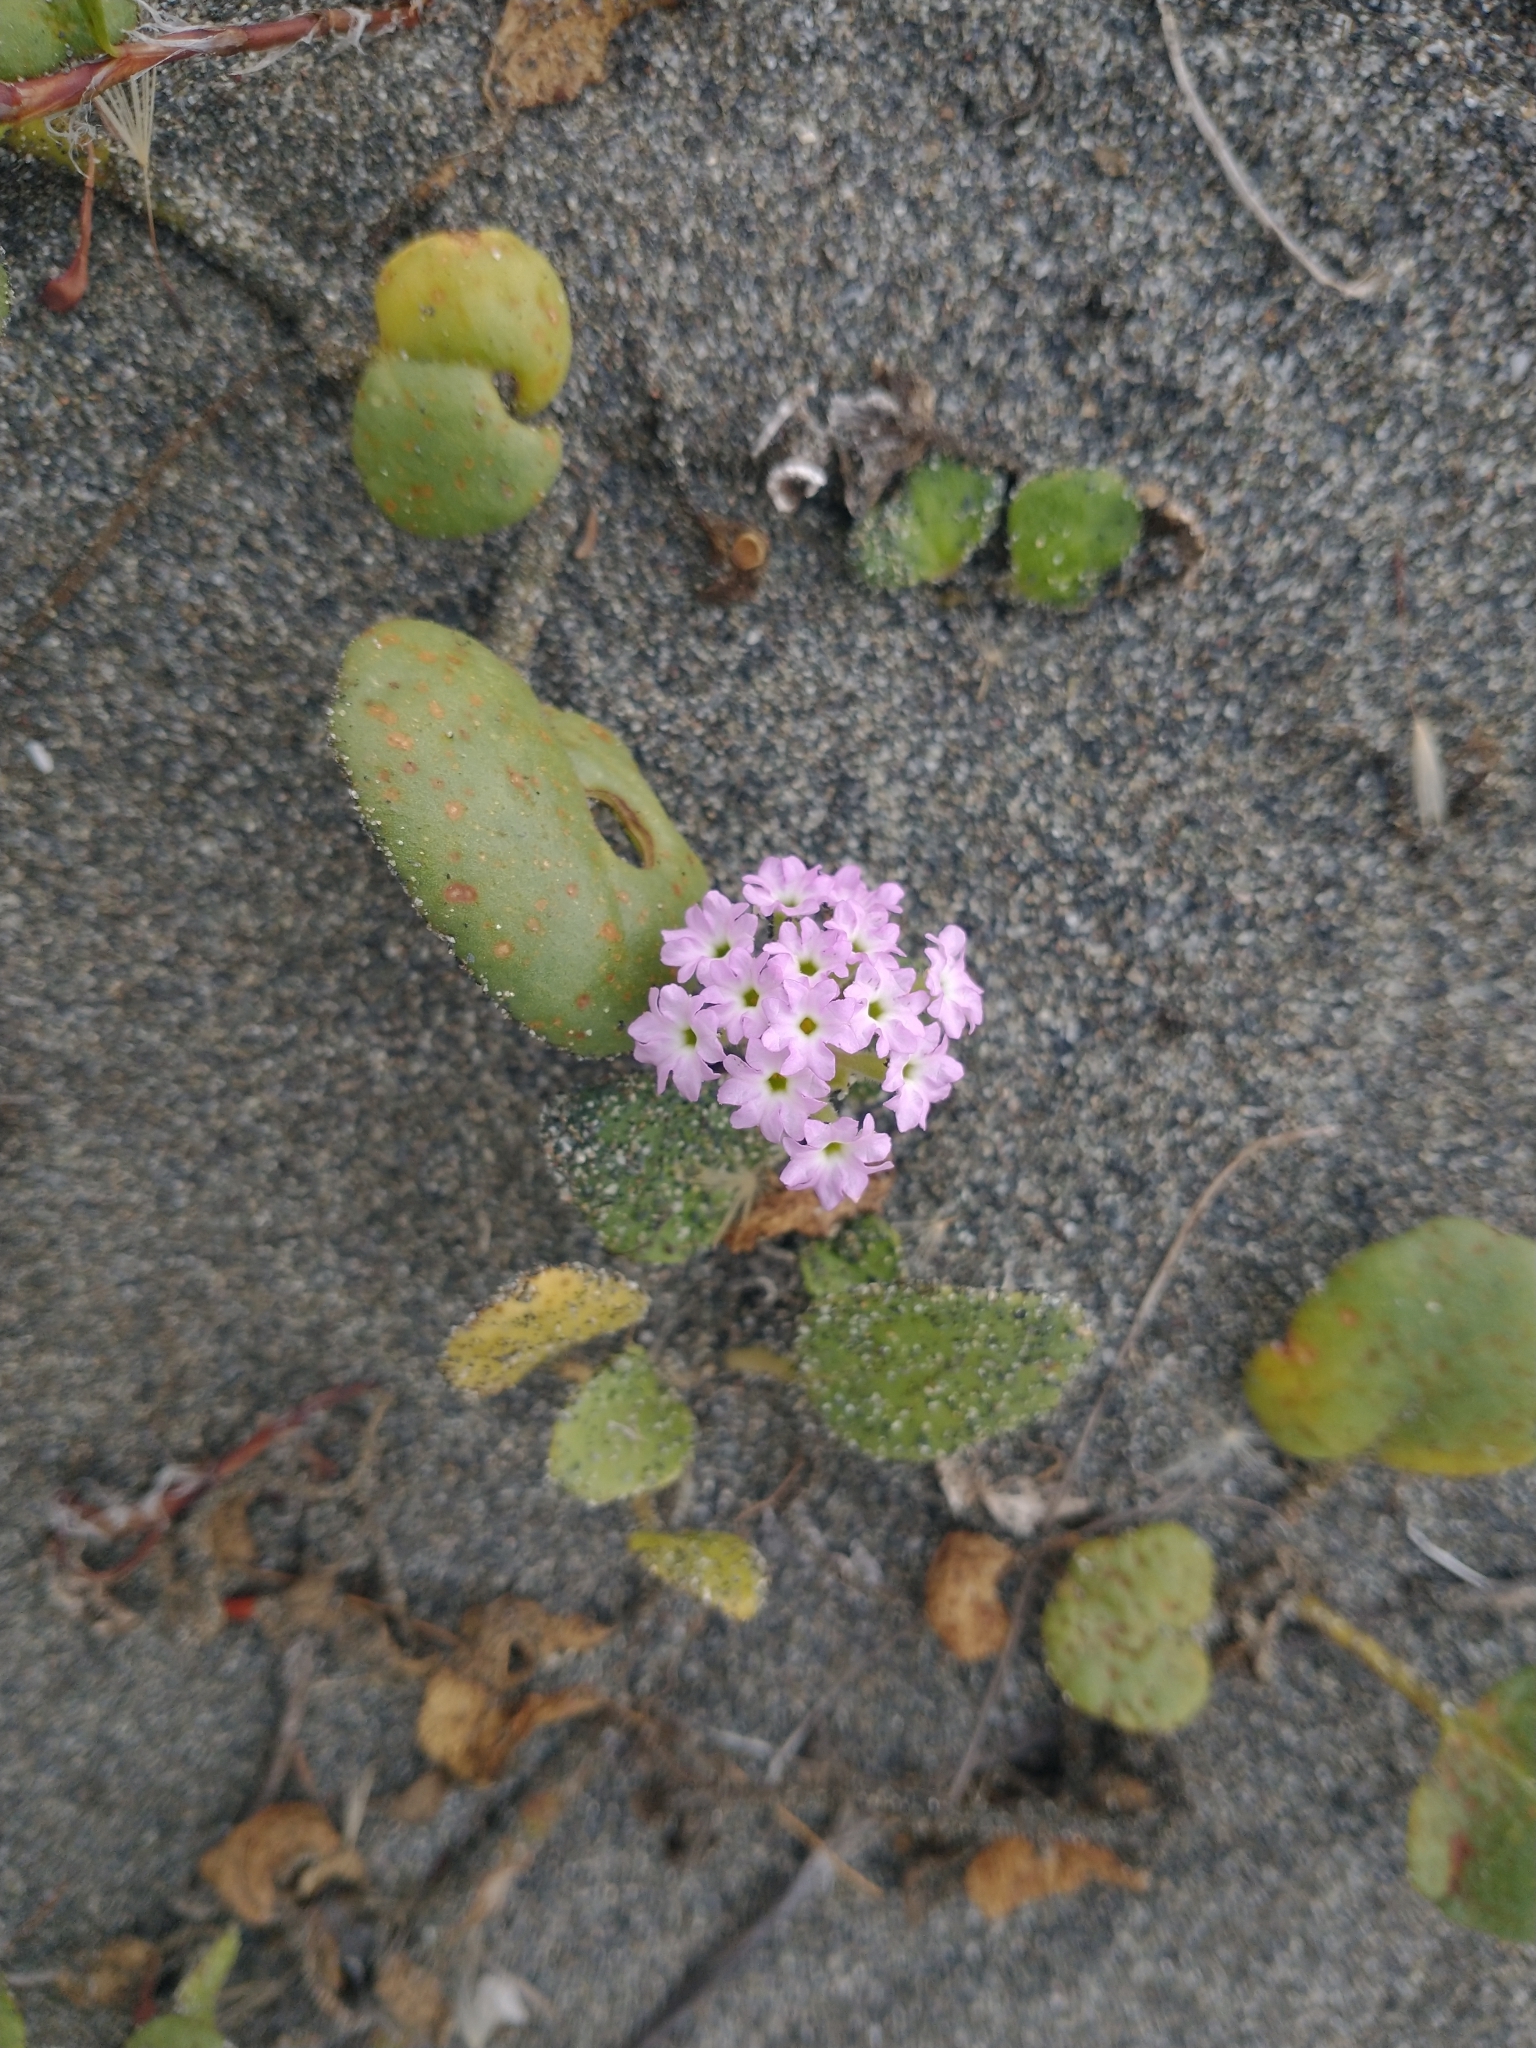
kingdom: Plantae
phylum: Tracheophyta
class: Magnoliopsida
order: Caryophyllales
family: Nyctaginaceae
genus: Abronia
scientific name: Abronia umbellata
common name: Sand-verbena
